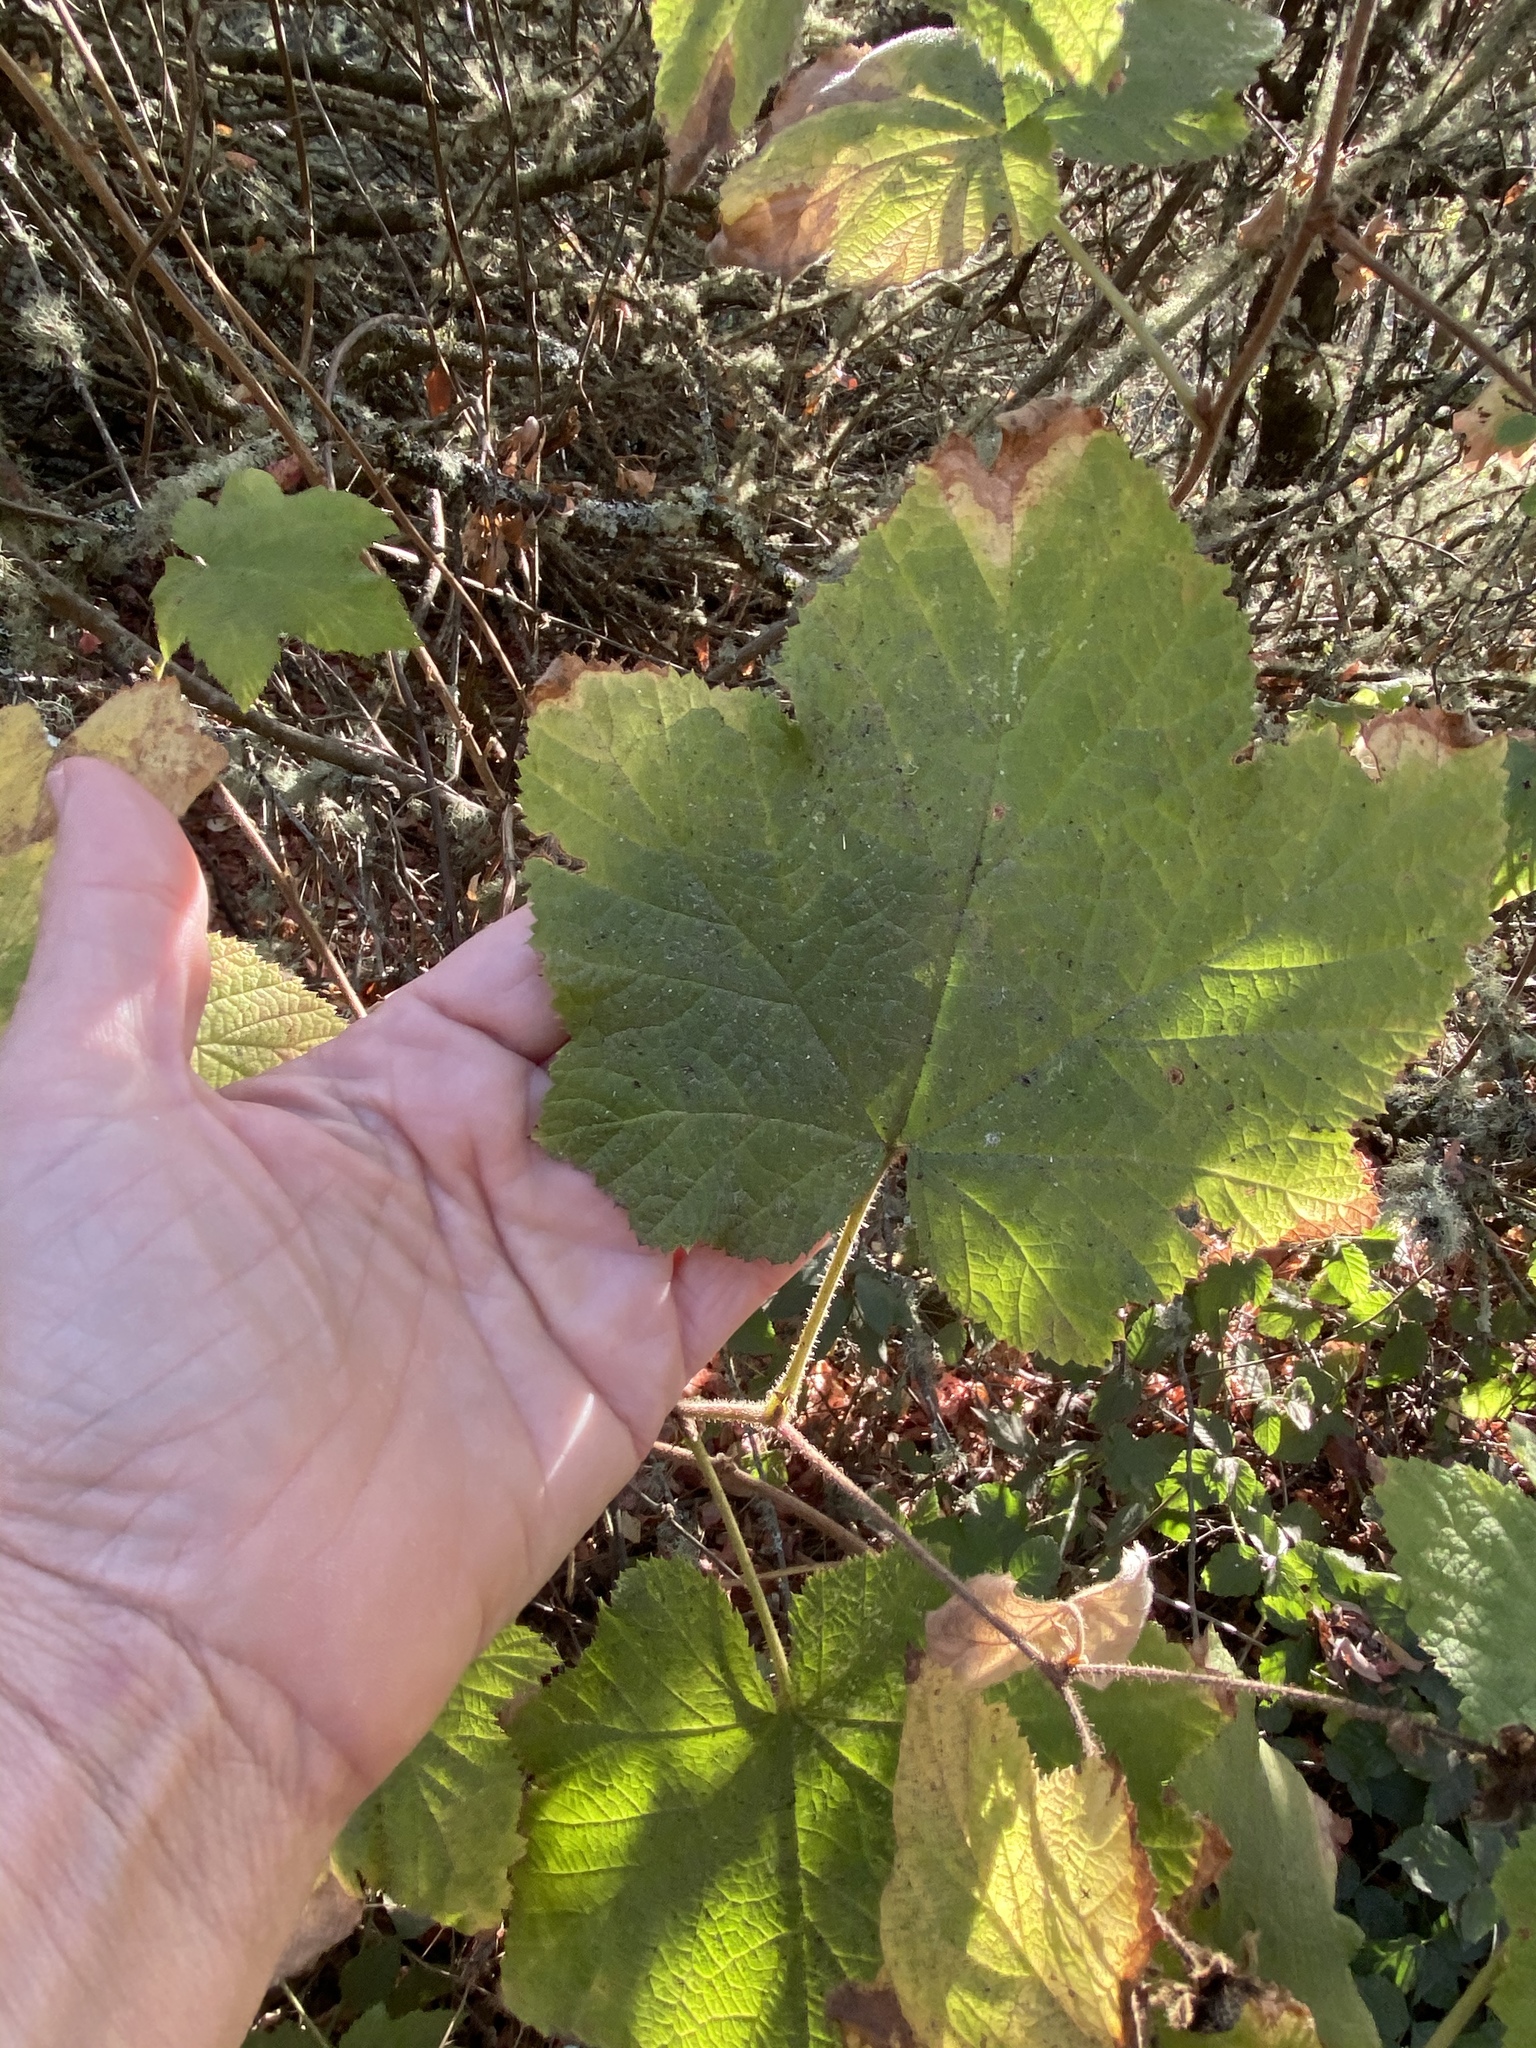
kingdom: Plantae
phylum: Tracheophyta
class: Magnoliopsida
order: Rosales
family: Rosaceae
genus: Rubus
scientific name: Rubus parviflorus
